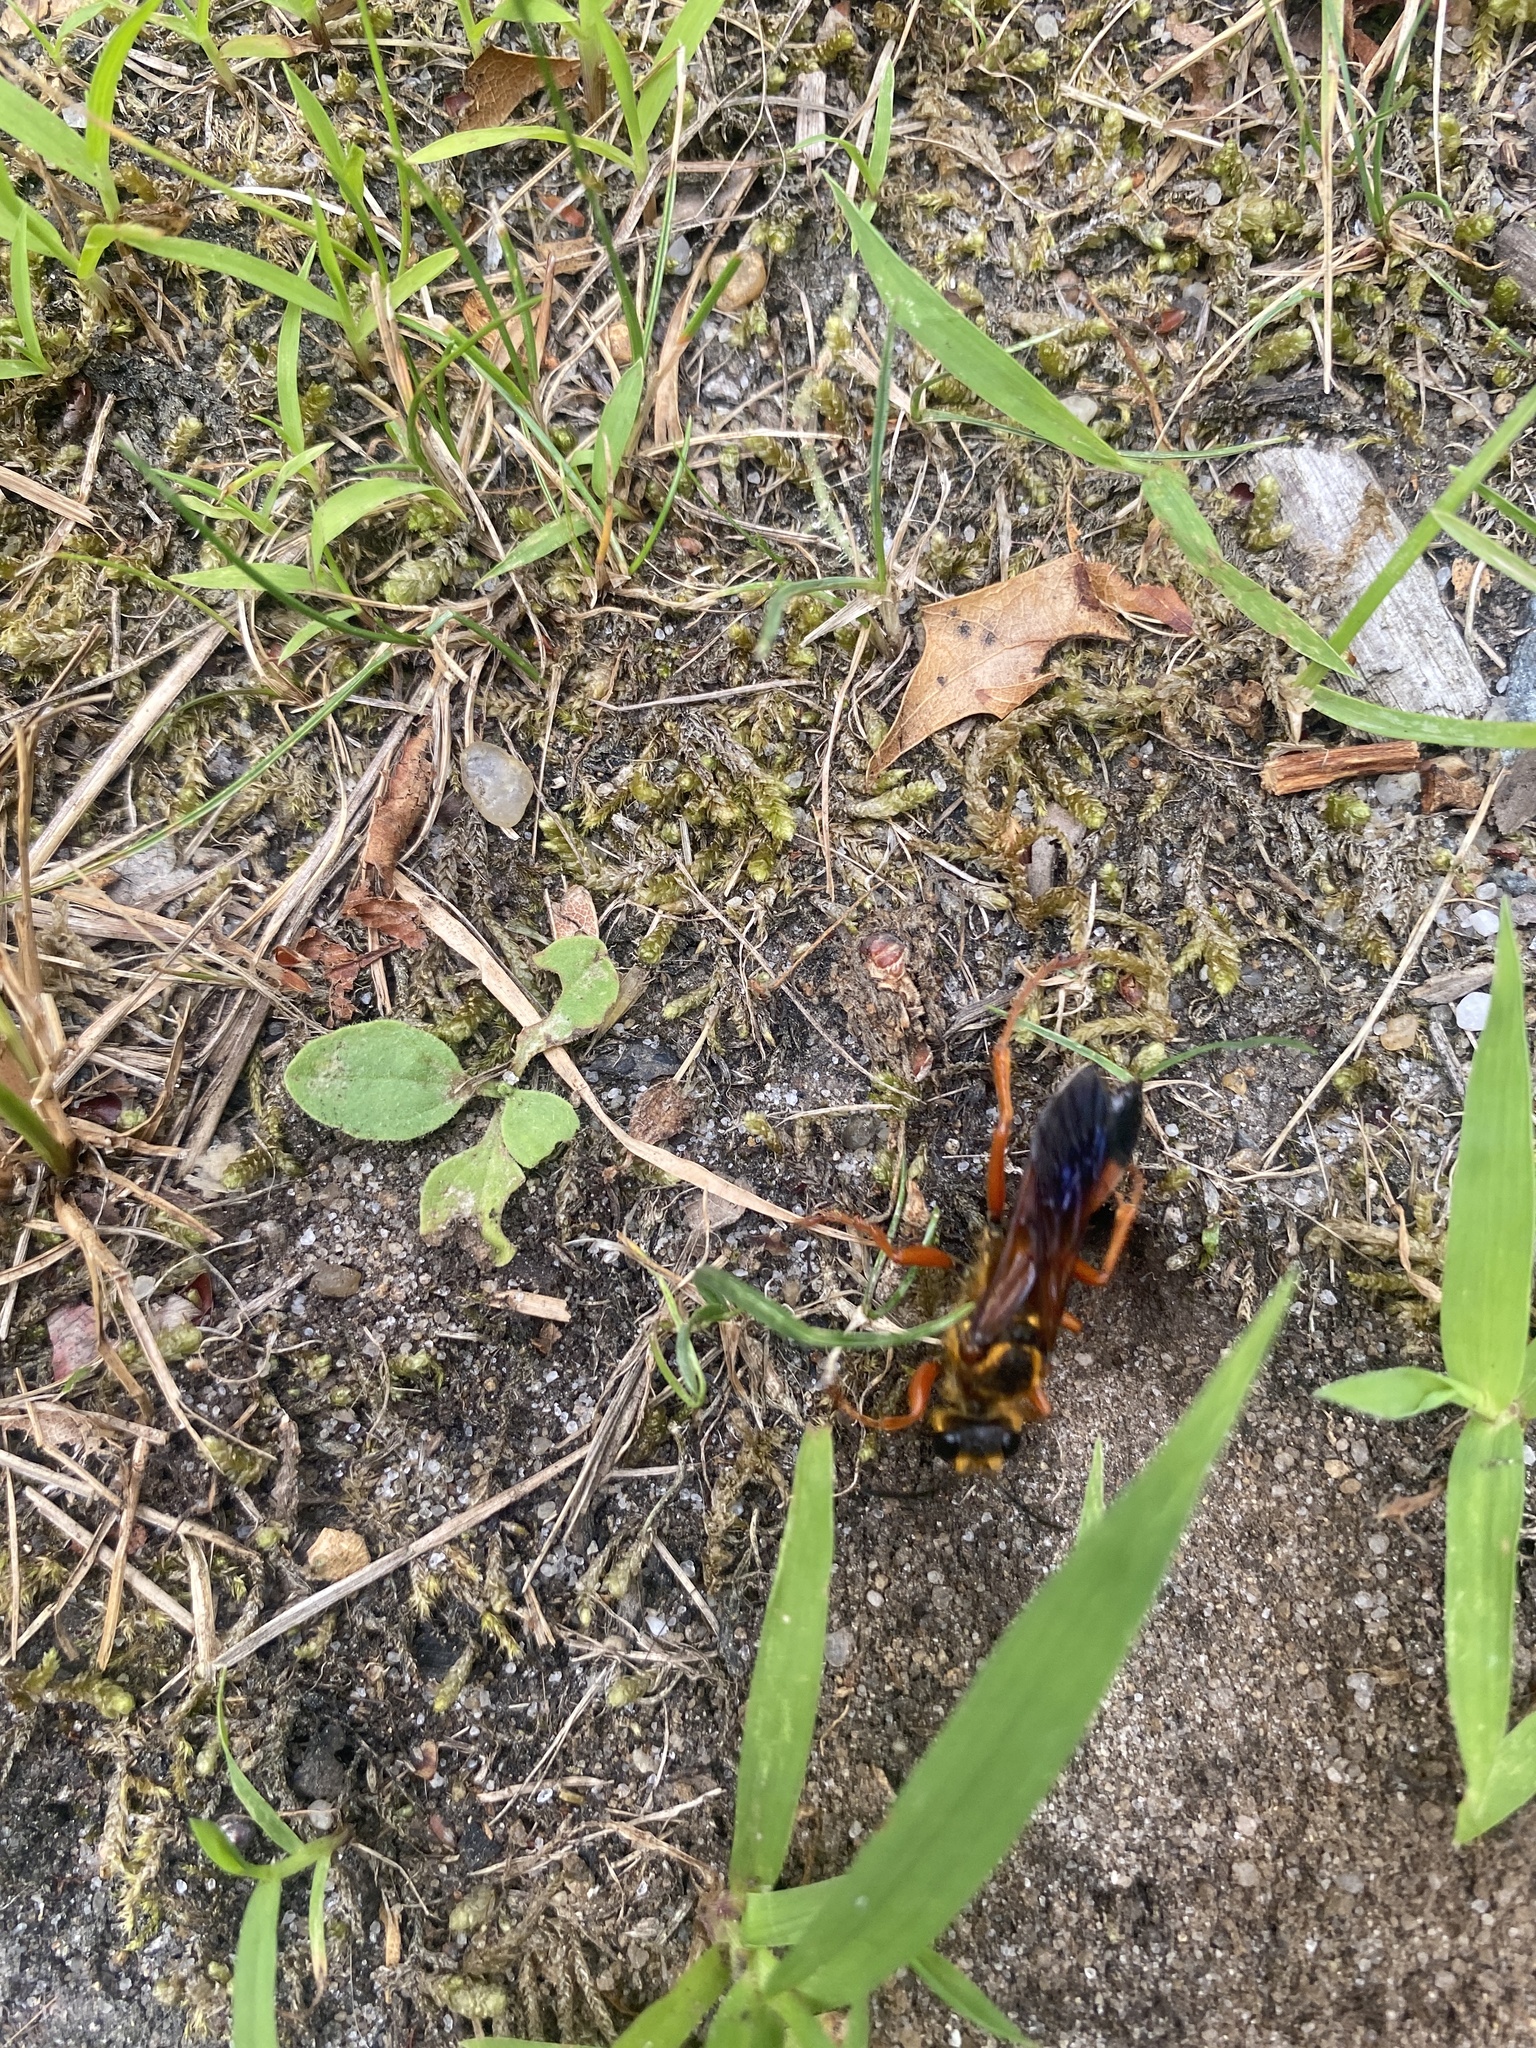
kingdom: Animalia
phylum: Arthropoda
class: Insecta
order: Hymenoptera
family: Sphecidae
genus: Sphex
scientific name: Sphex ichneumoneus
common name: Great golden digger wasp
